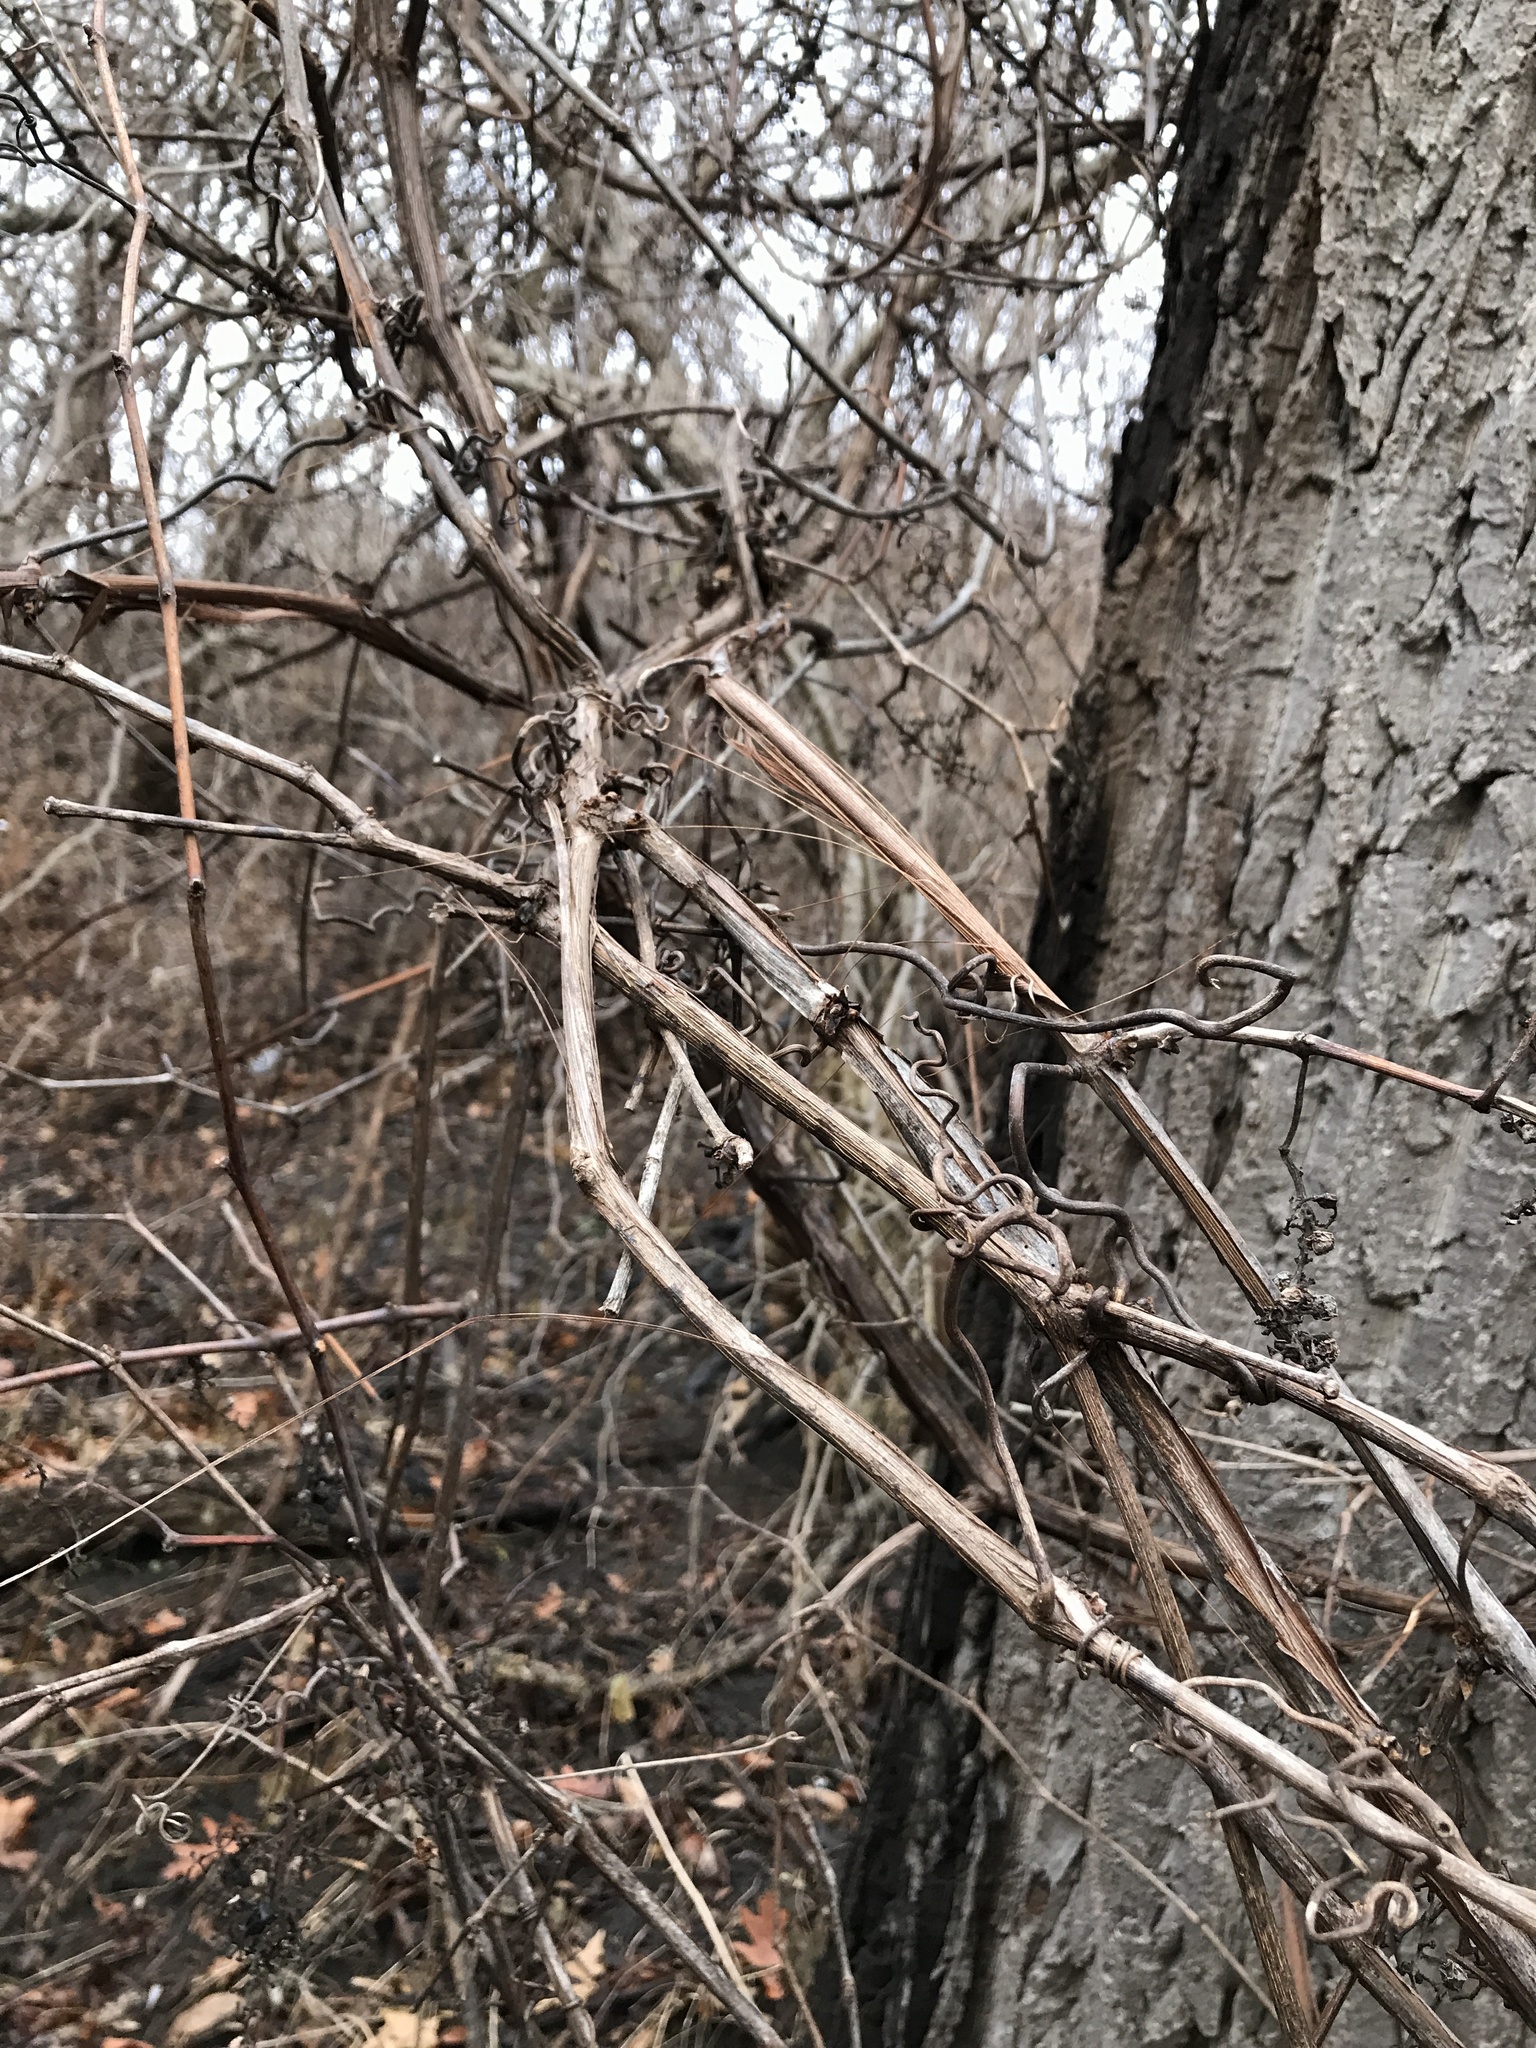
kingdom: Plantae
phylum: Tracheophyta
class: Magnoliopsida
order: Vitales
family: Vitaceae
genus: Vitis
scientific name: Vitis riparia
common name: Frost grape
